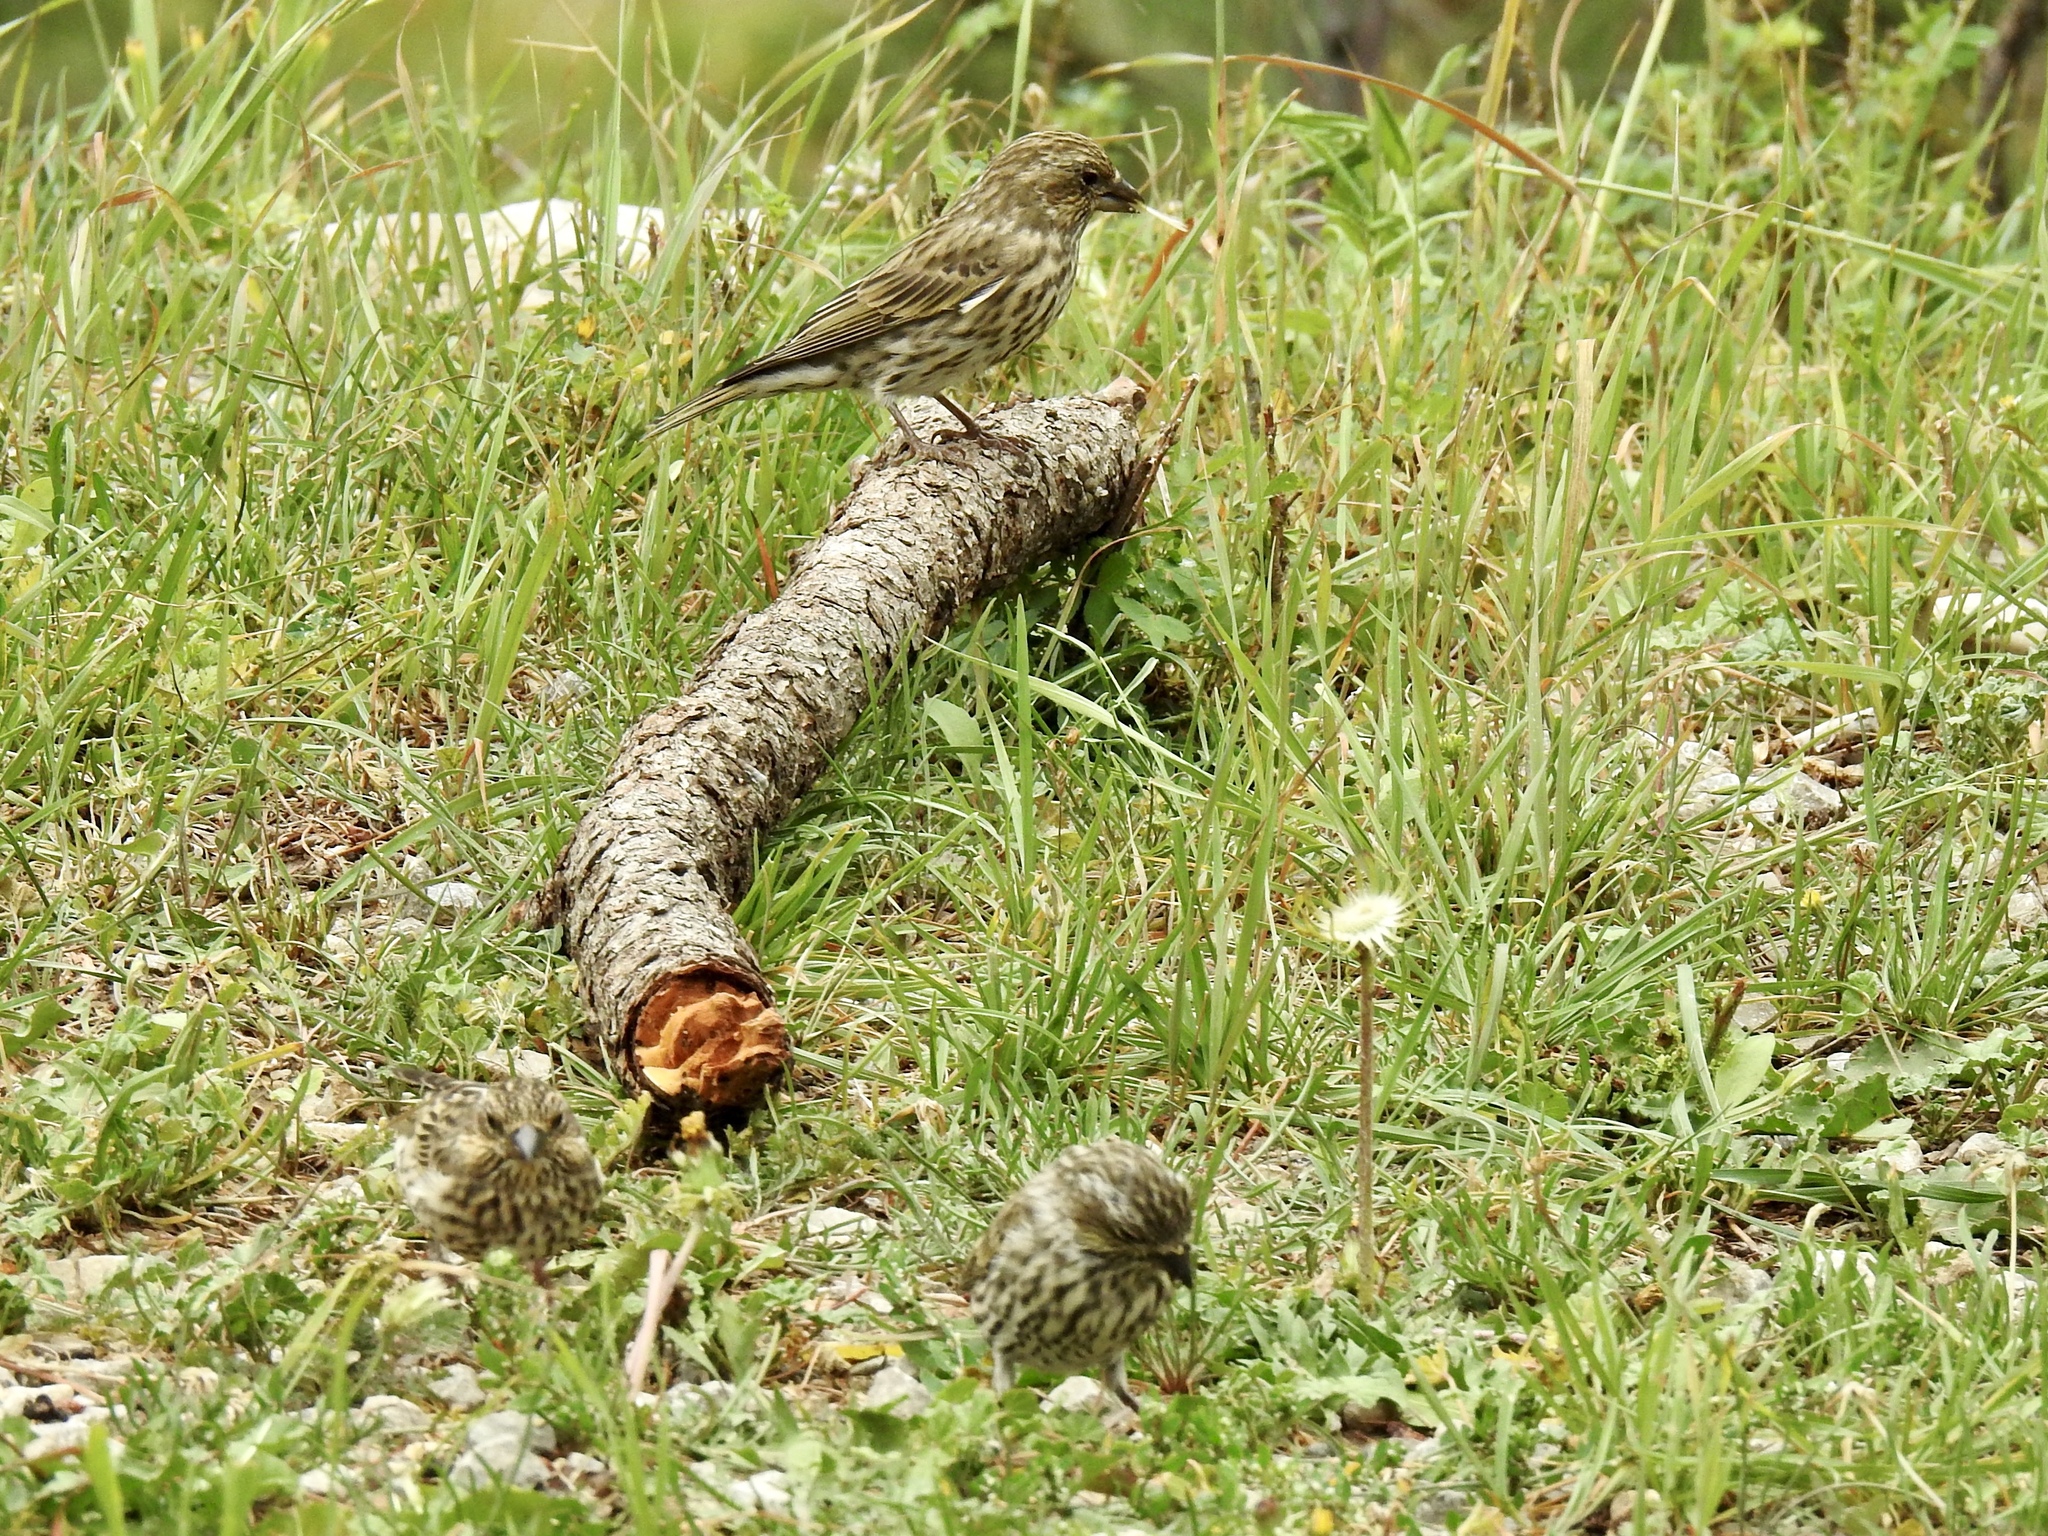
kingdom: Animalia
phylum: Chordata
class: Aves
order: Passeriformes
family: Fringillidae
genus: Haemorhous
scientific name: Haemorhous cassinii
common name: Cassin's finch
